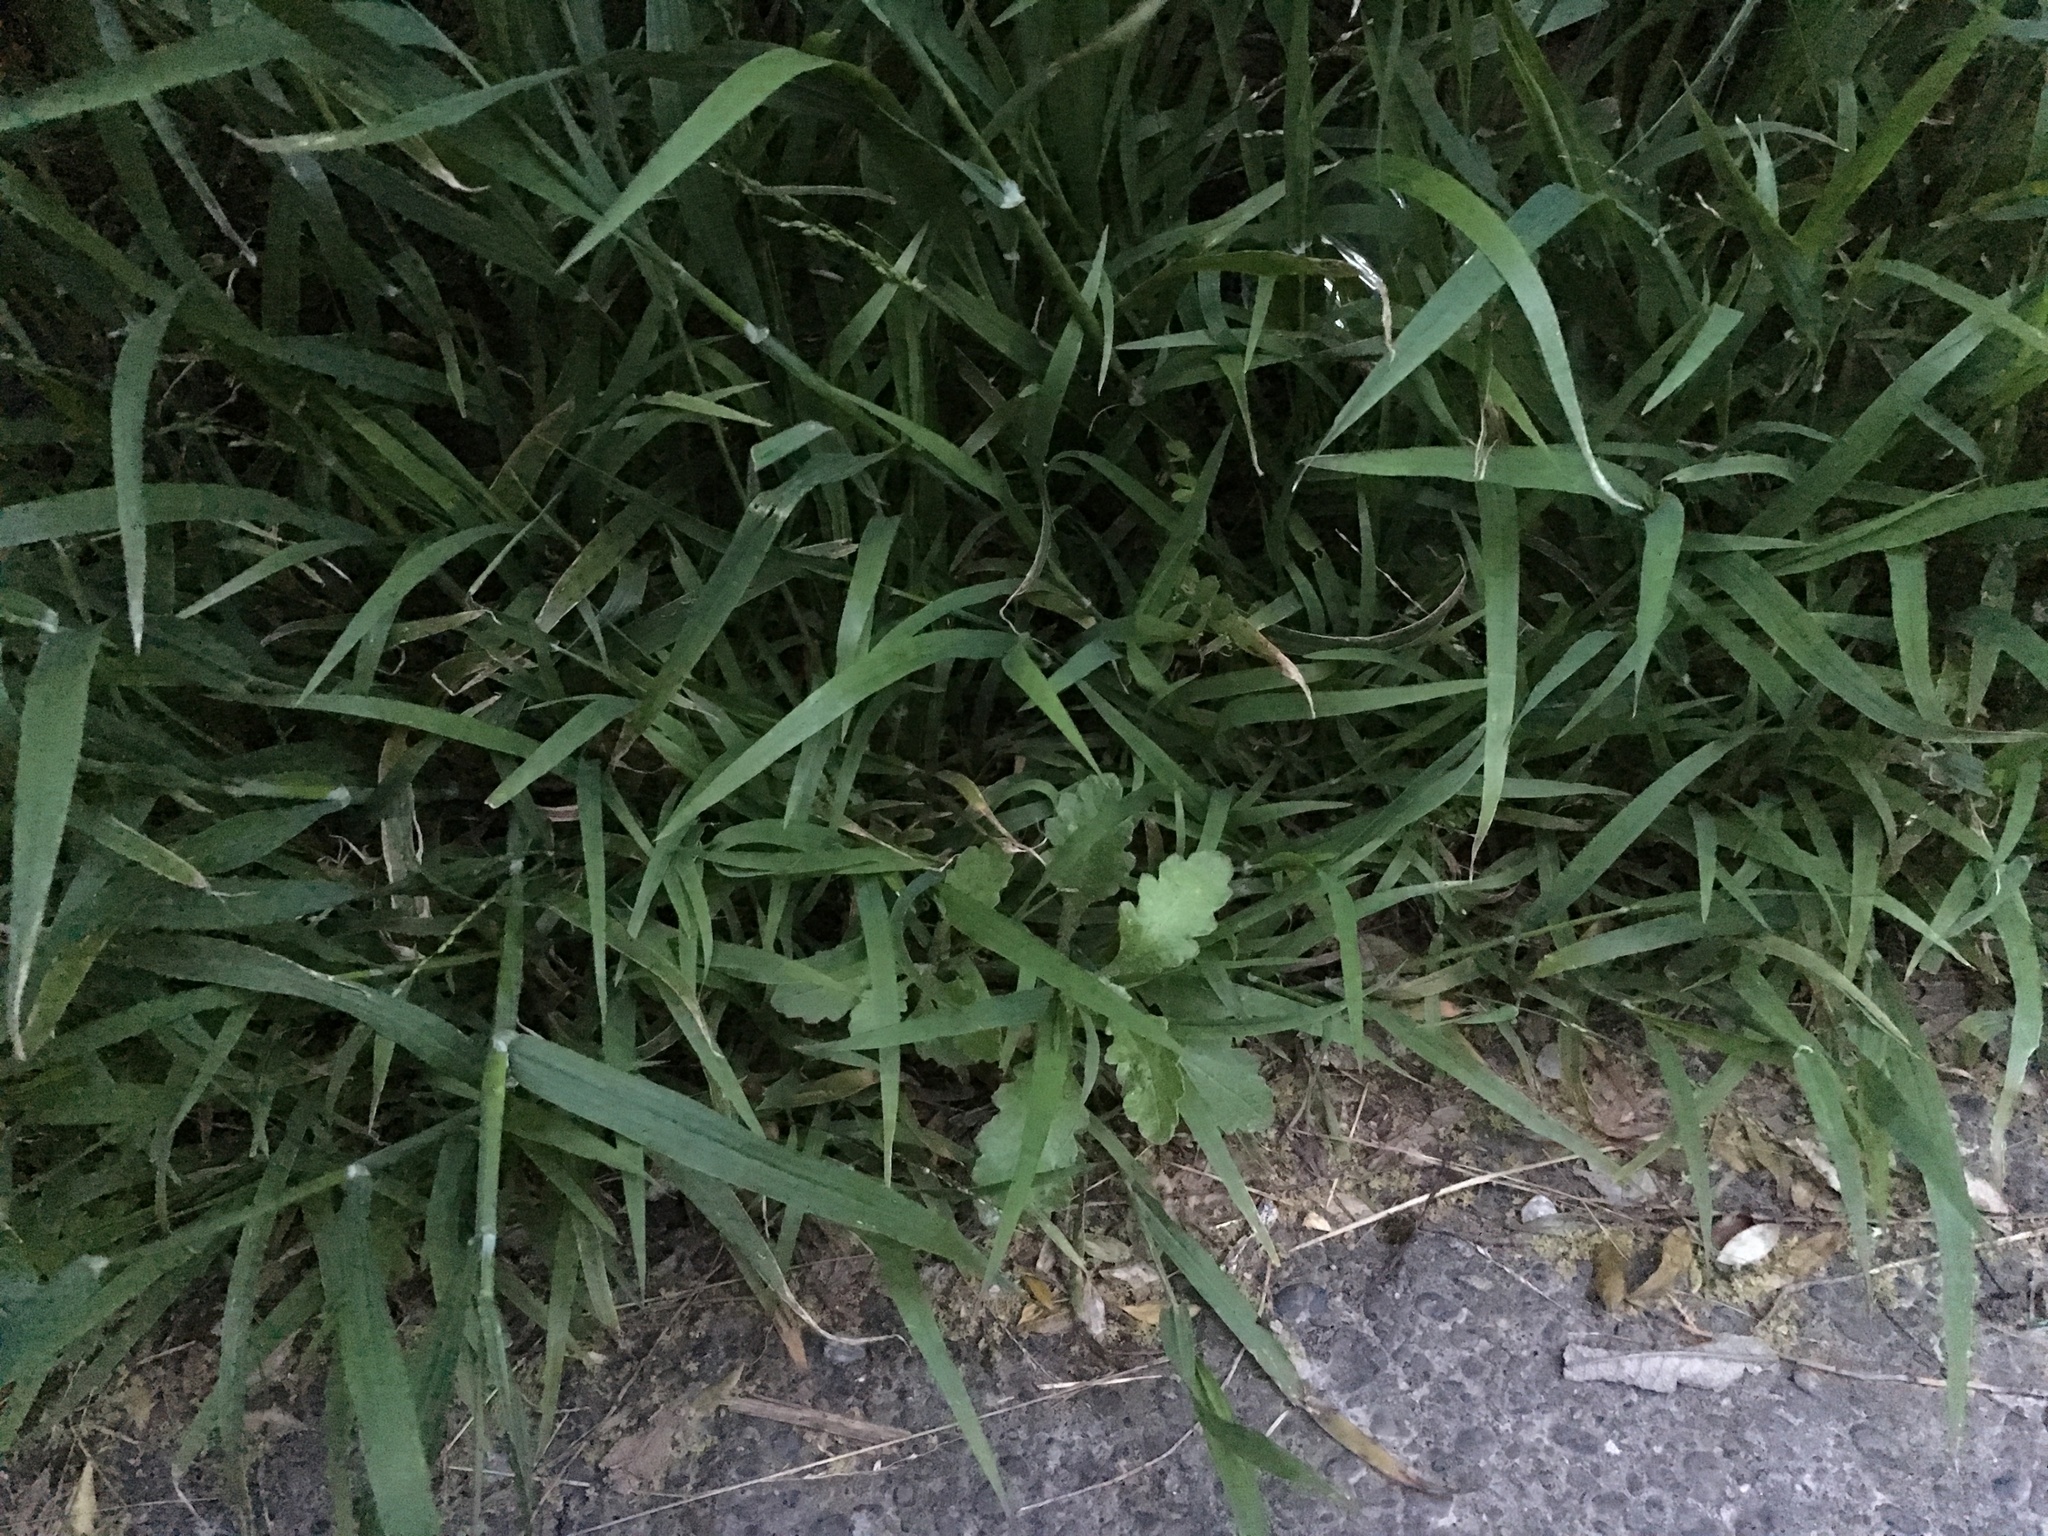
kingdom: Plantae
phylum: Tracheophyta
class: Magnoliopsida
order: Asterales
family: Asteraceae
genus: Senecio
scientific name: Senecio glomeratus
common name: Cutleaf burnweed
